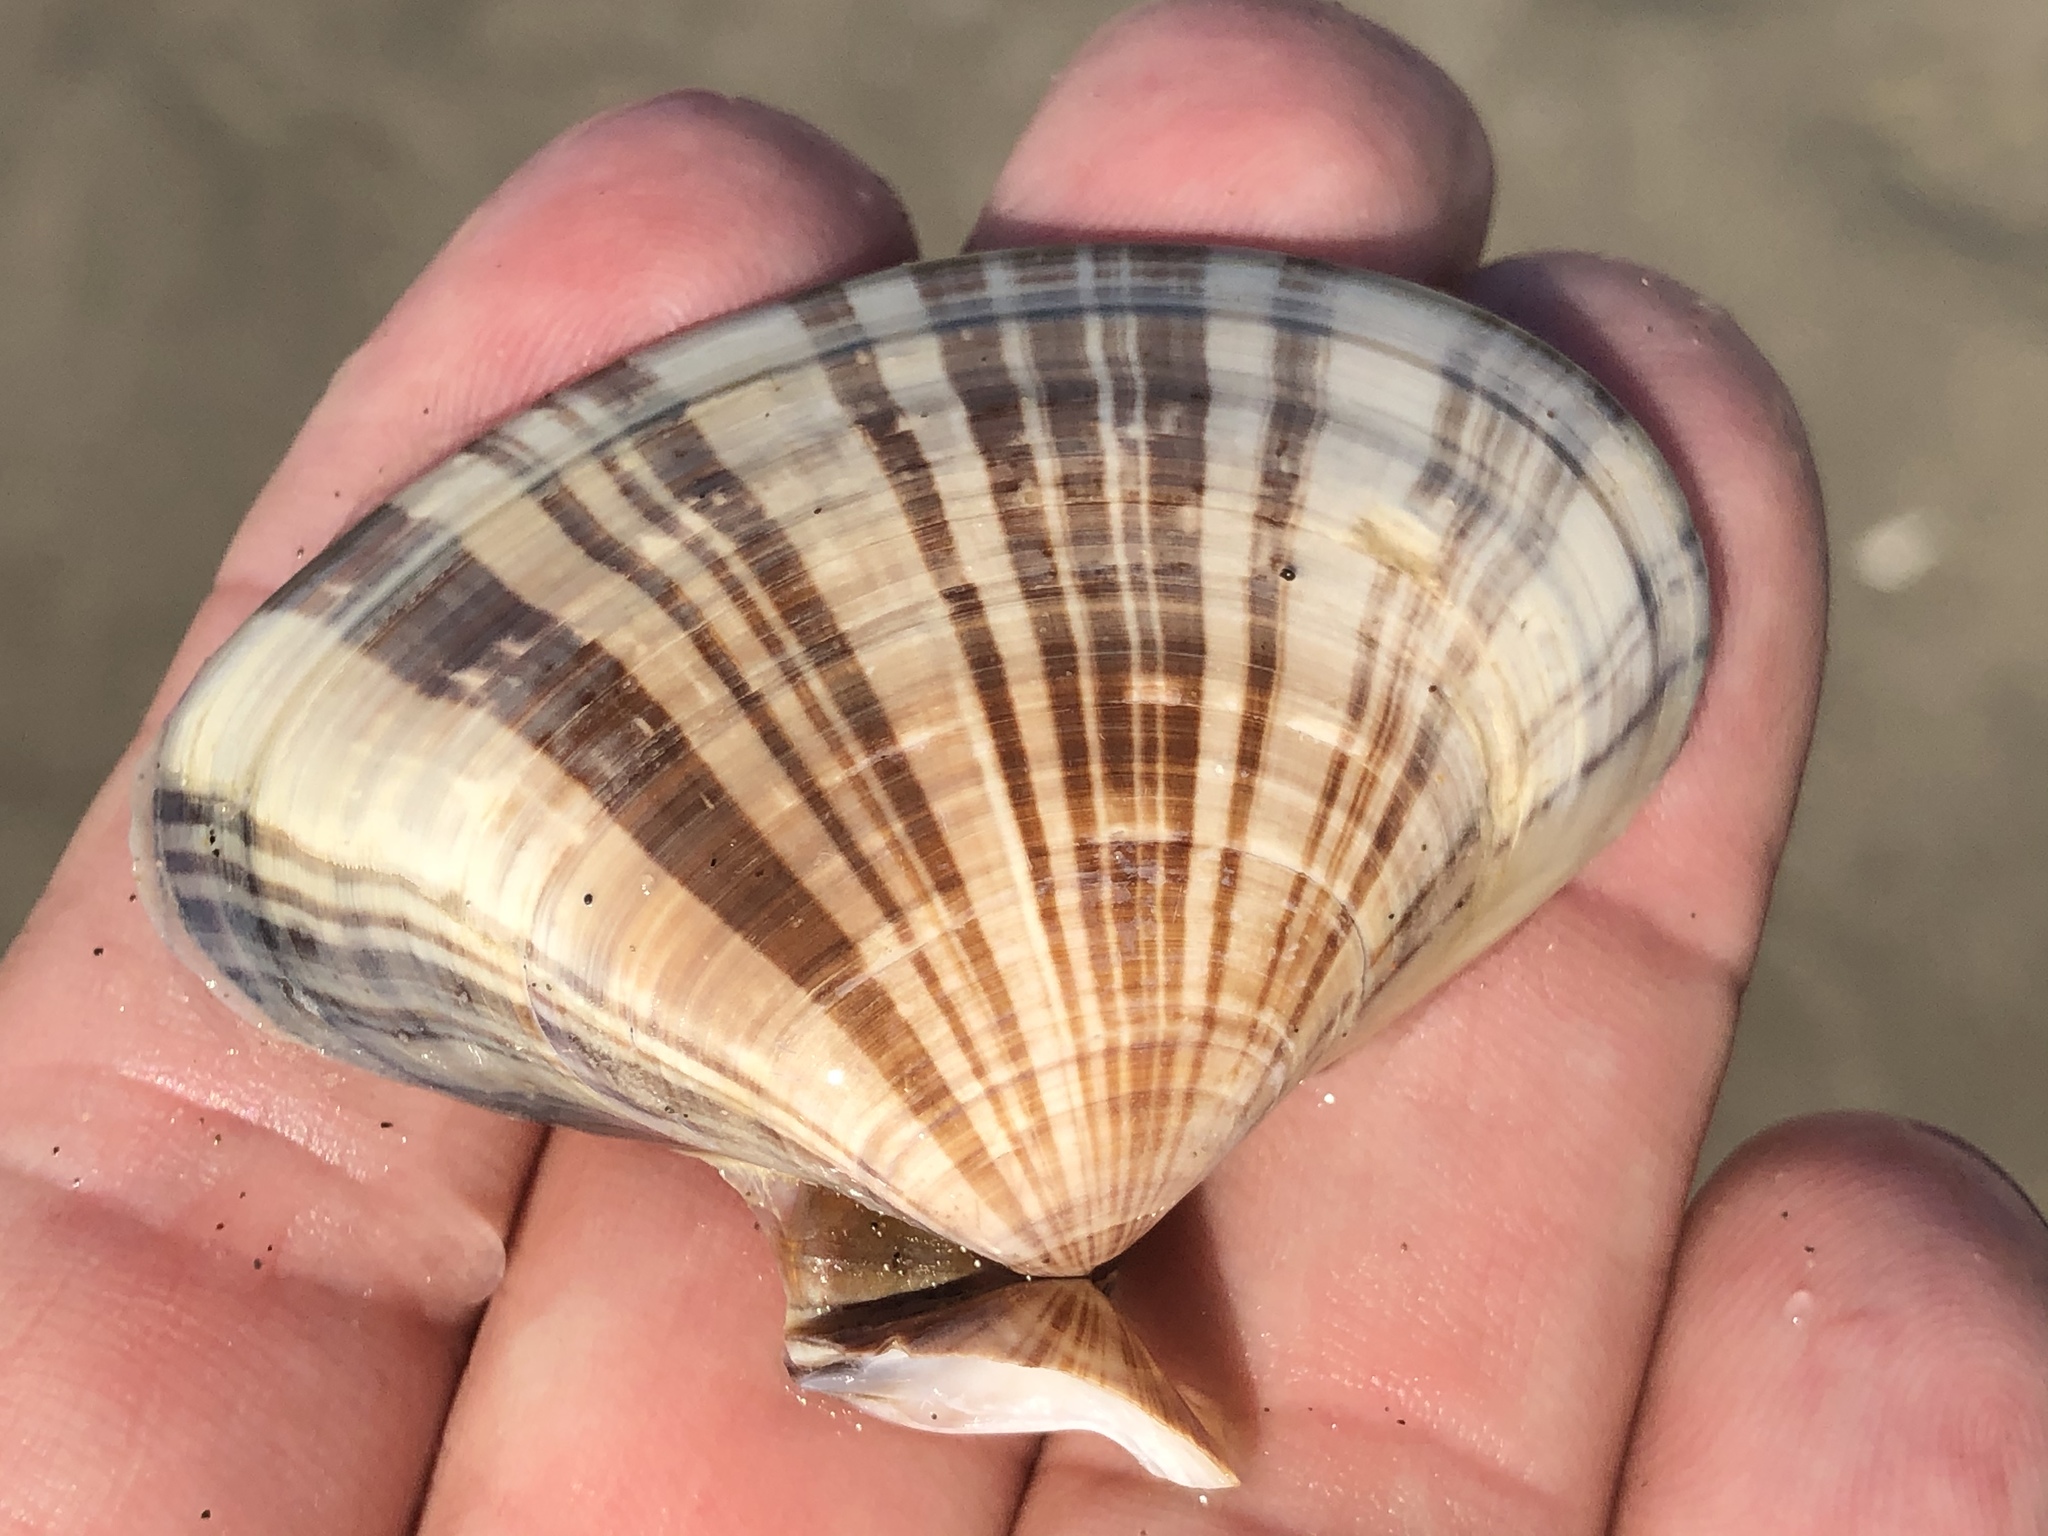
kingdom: Animalia
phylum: Mollusca
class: Bivalvia
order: Venerida
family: Veneridae
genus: Tivela
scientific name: Tivela stultorum
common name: Pismo clam
